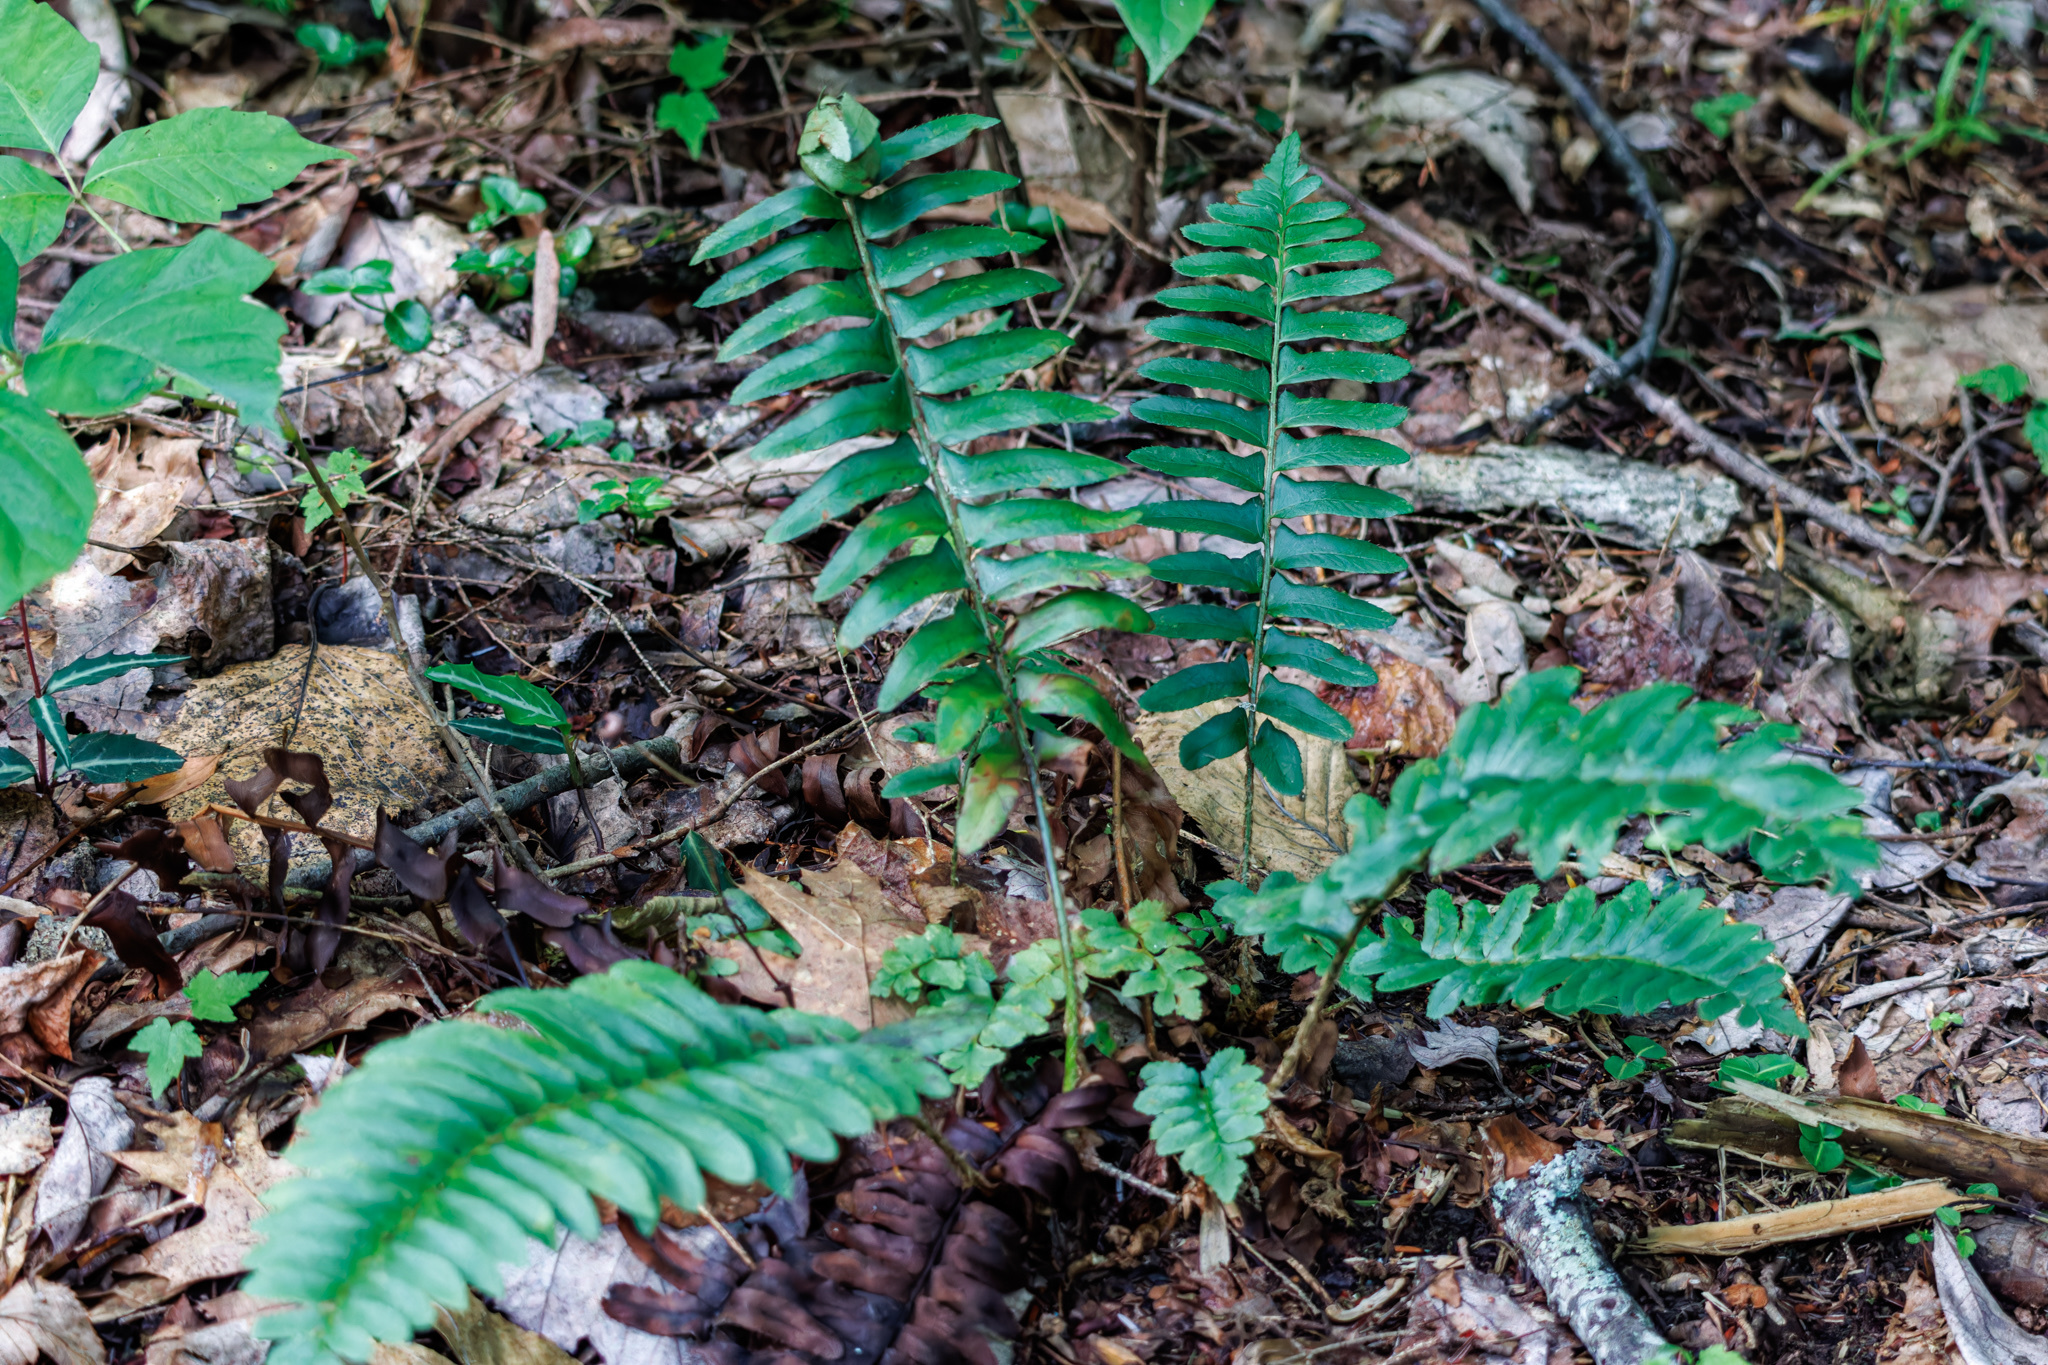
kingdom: Plantae
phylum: Tracheophyta
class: Polypodiopsida
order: Polypodiales
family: Dryopteridaceae
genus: Polystichum
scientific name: Polystichum acrostichoides
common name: Christmas fern
